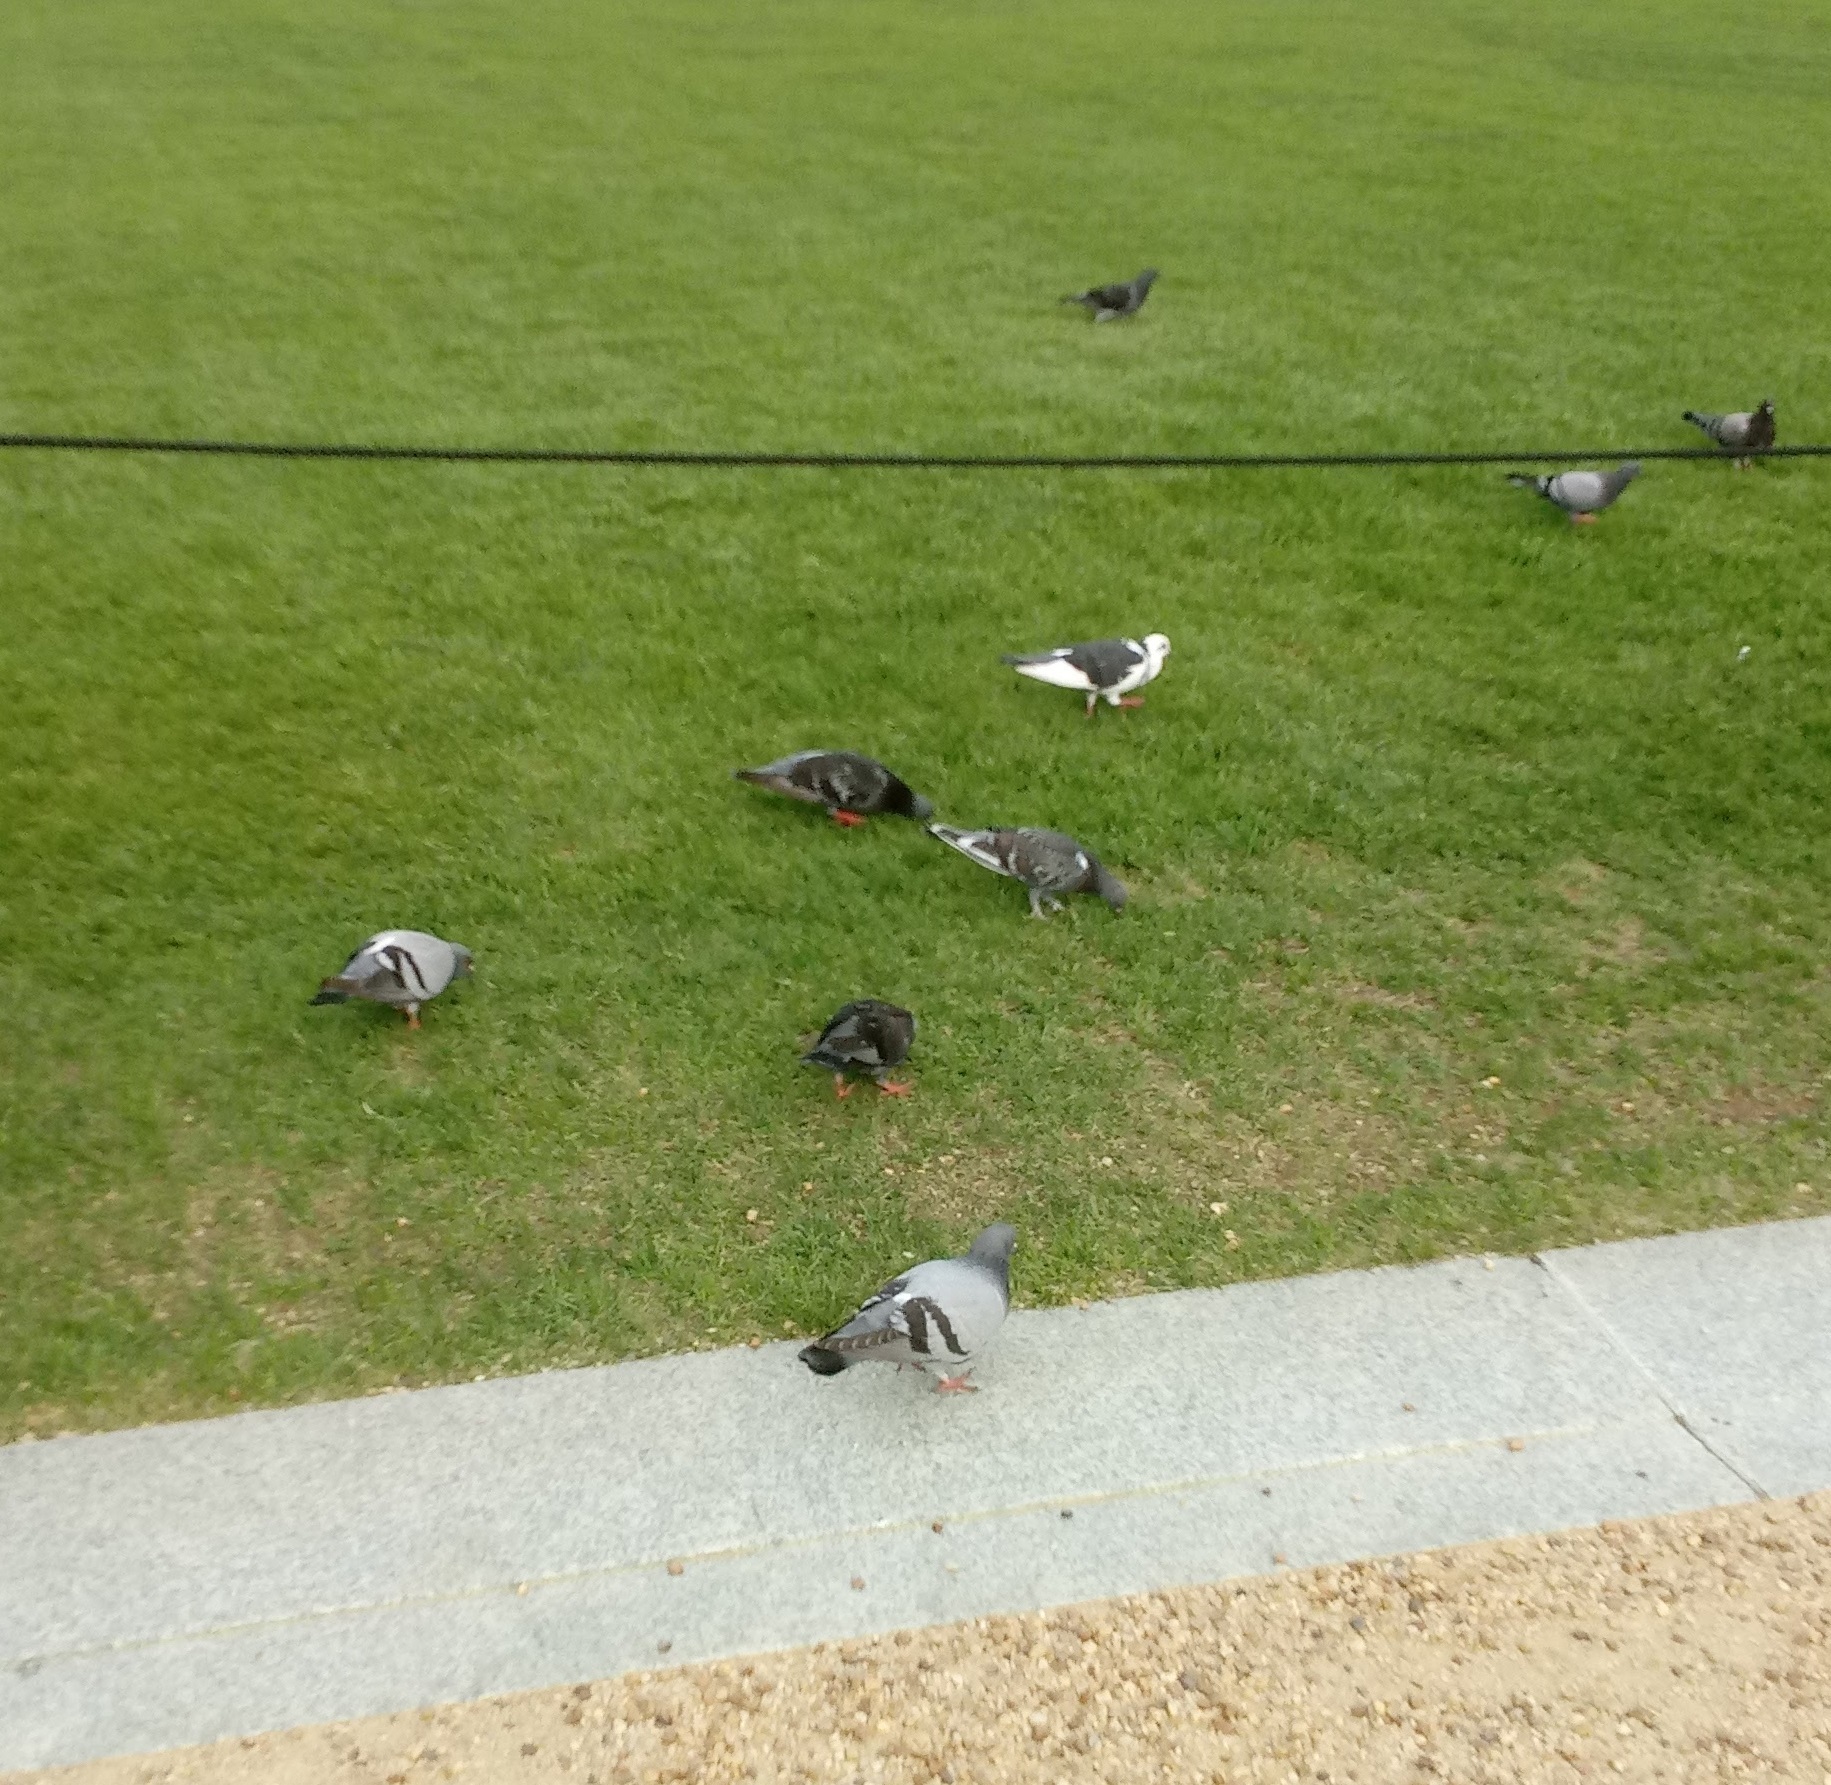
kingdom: Animalia
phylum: Chordata
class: Aves
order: Columbiformes
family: Columbidae
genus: Columba
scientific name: Columba livia
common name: Rock pigeon
